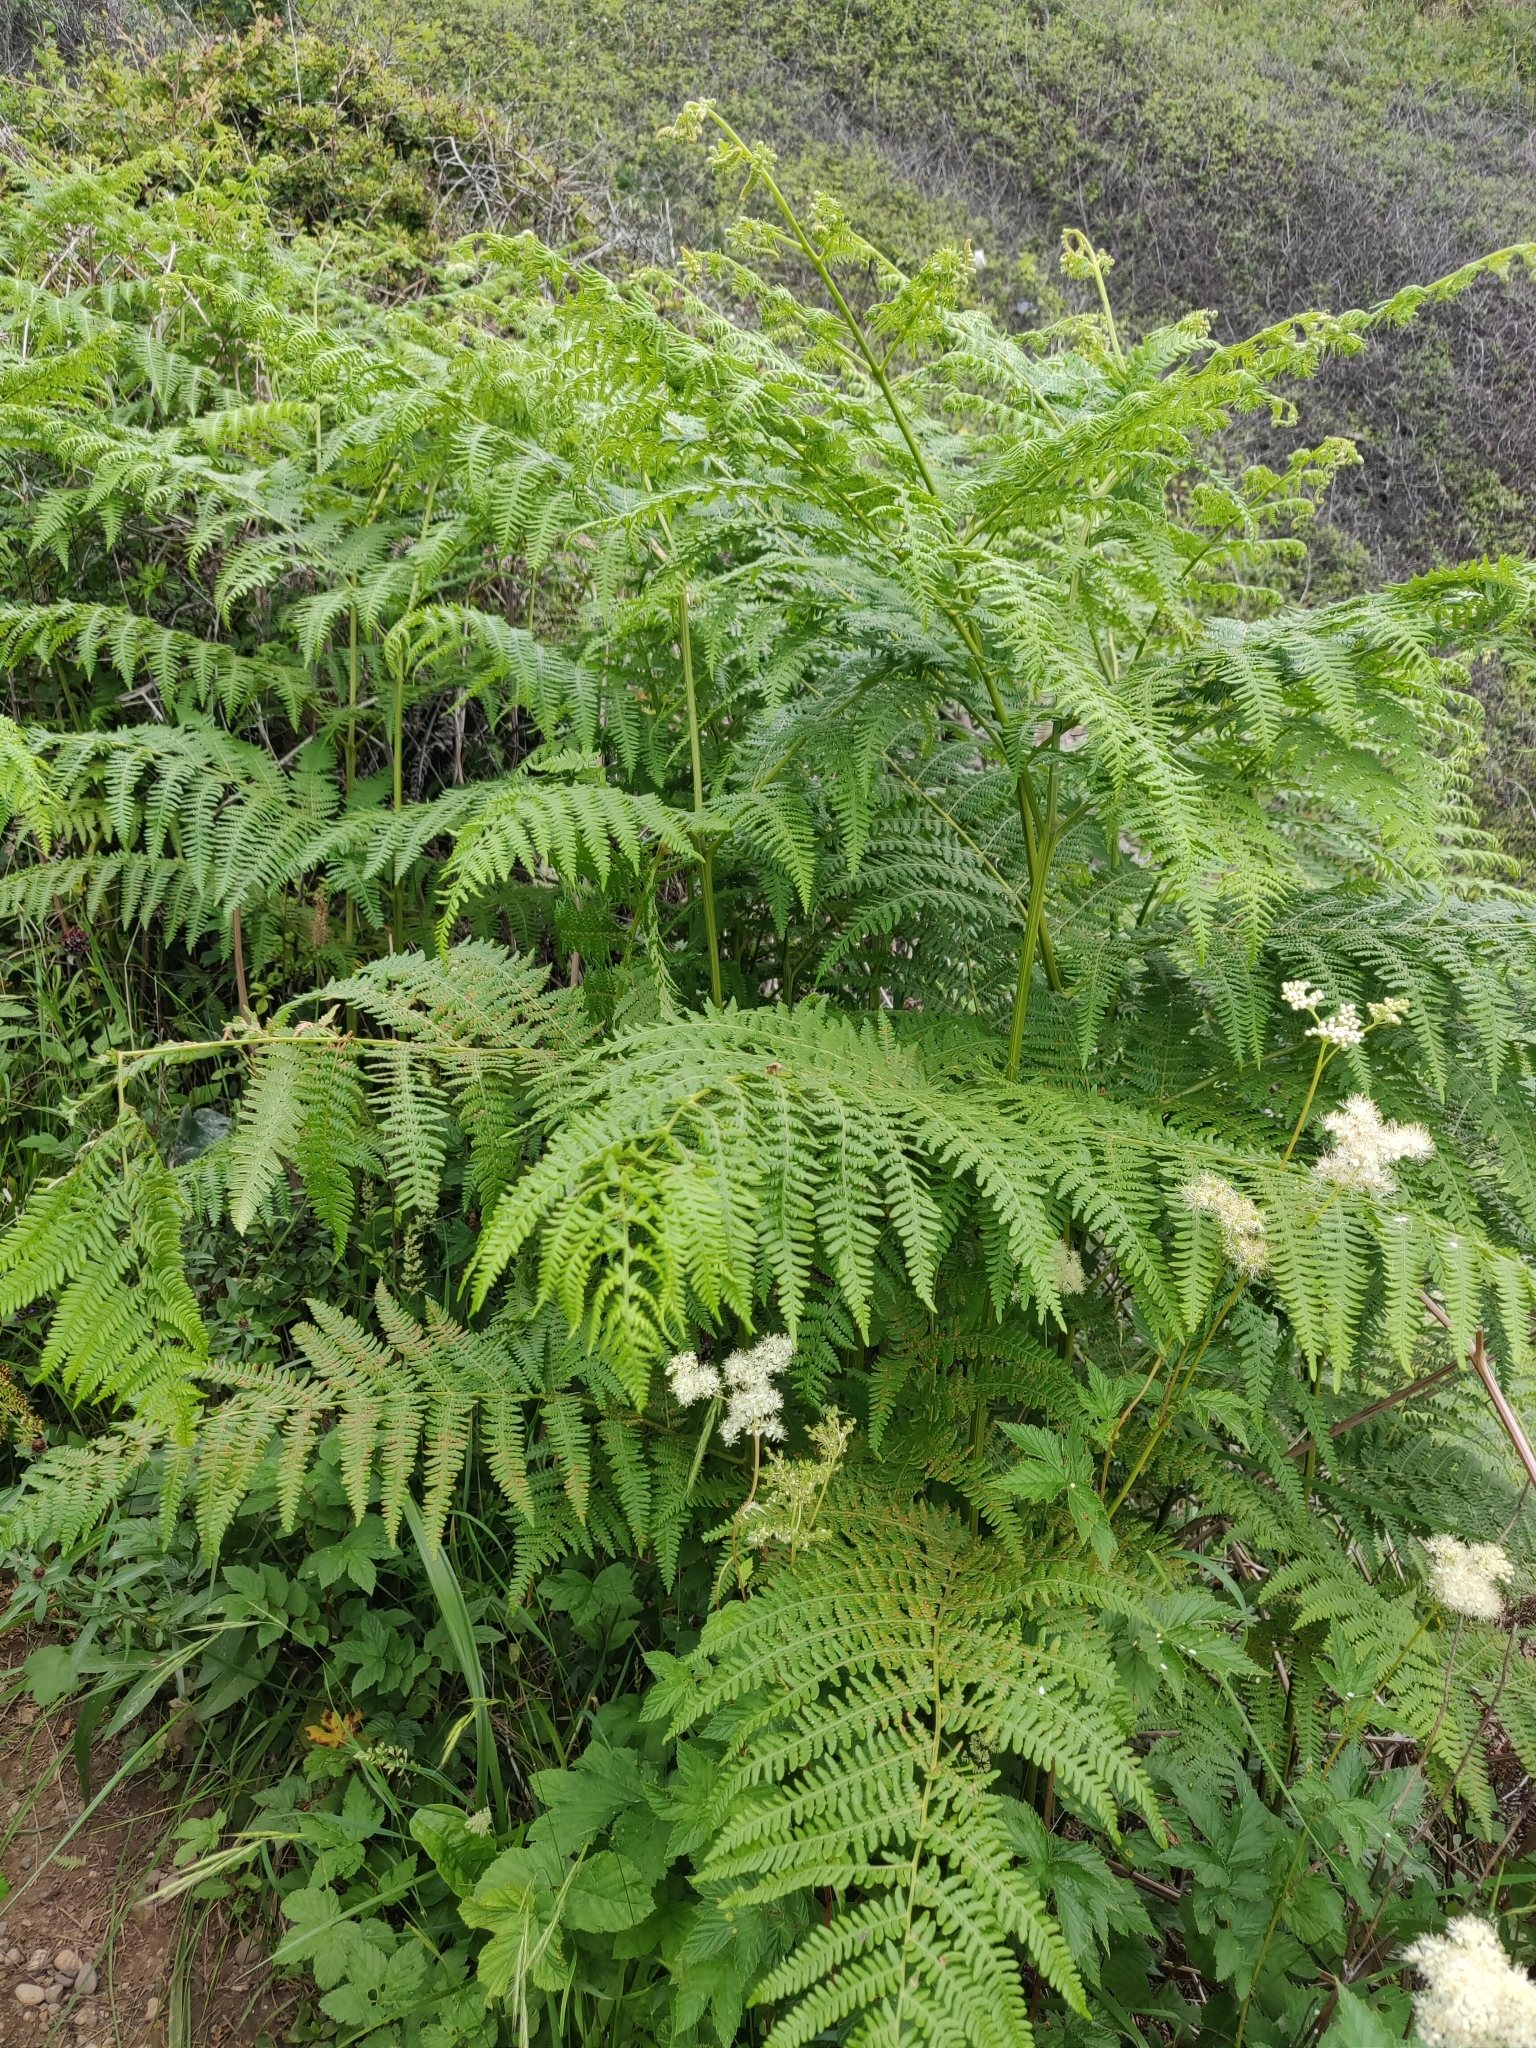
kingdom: Plantae
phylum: Tracheophyta
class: Polypodiopsida
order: Polypodiales
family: Dennstaedtiaceae
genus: Pteridium
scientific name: Pteridium aquilinum
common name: Bracken
